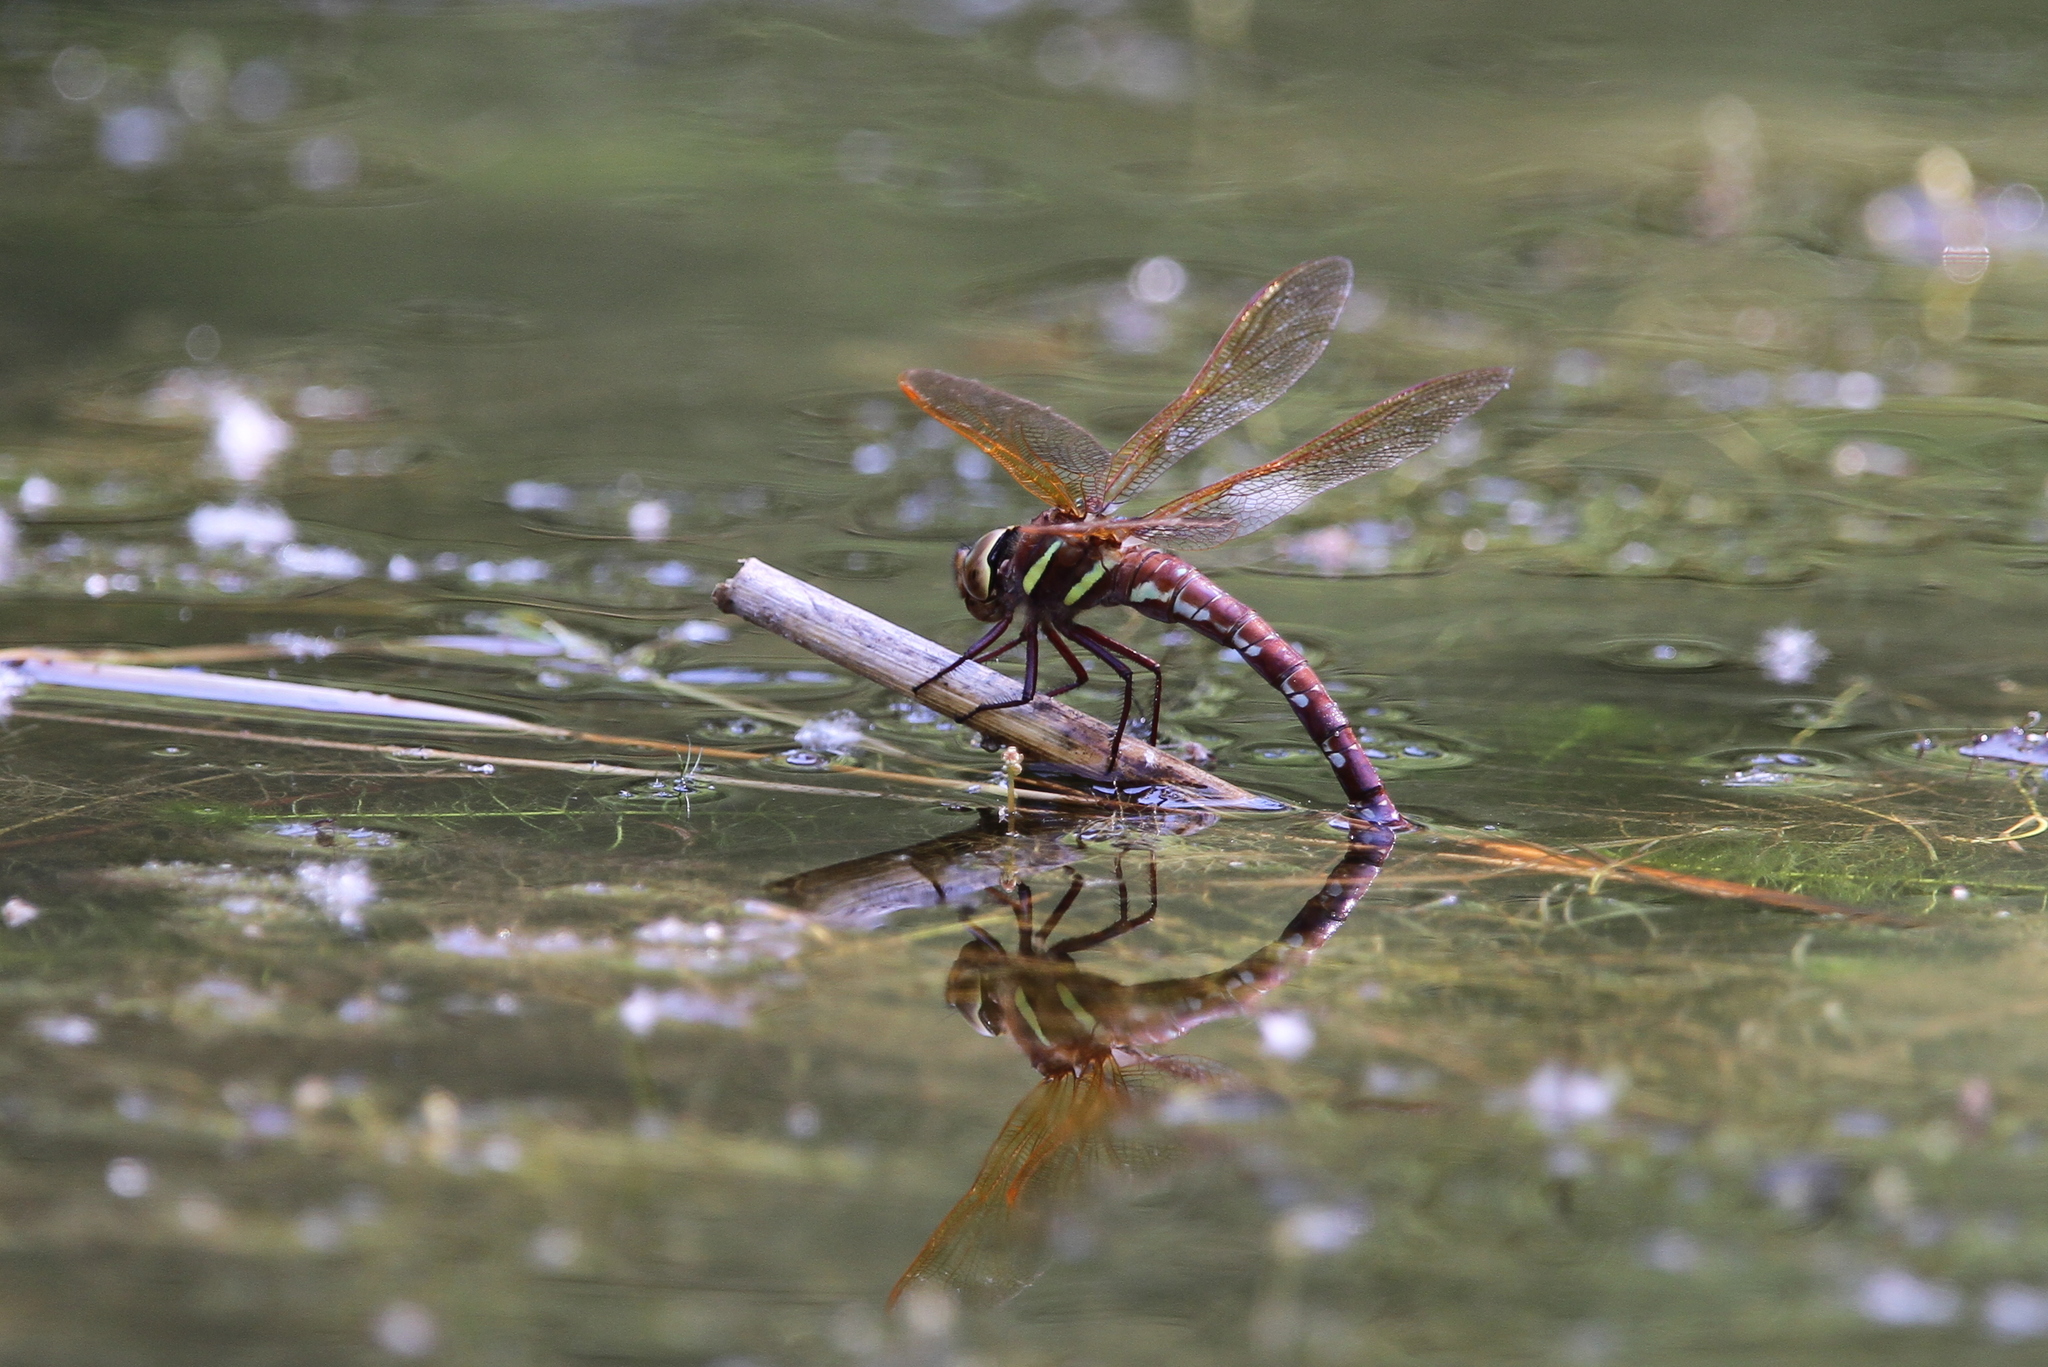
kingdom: Animalia
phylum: Arthropoda
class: Insecta
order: Odonata
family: Aeshnidae
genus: Aeshna
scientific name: Aeshna grandis
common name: Brown hawker
